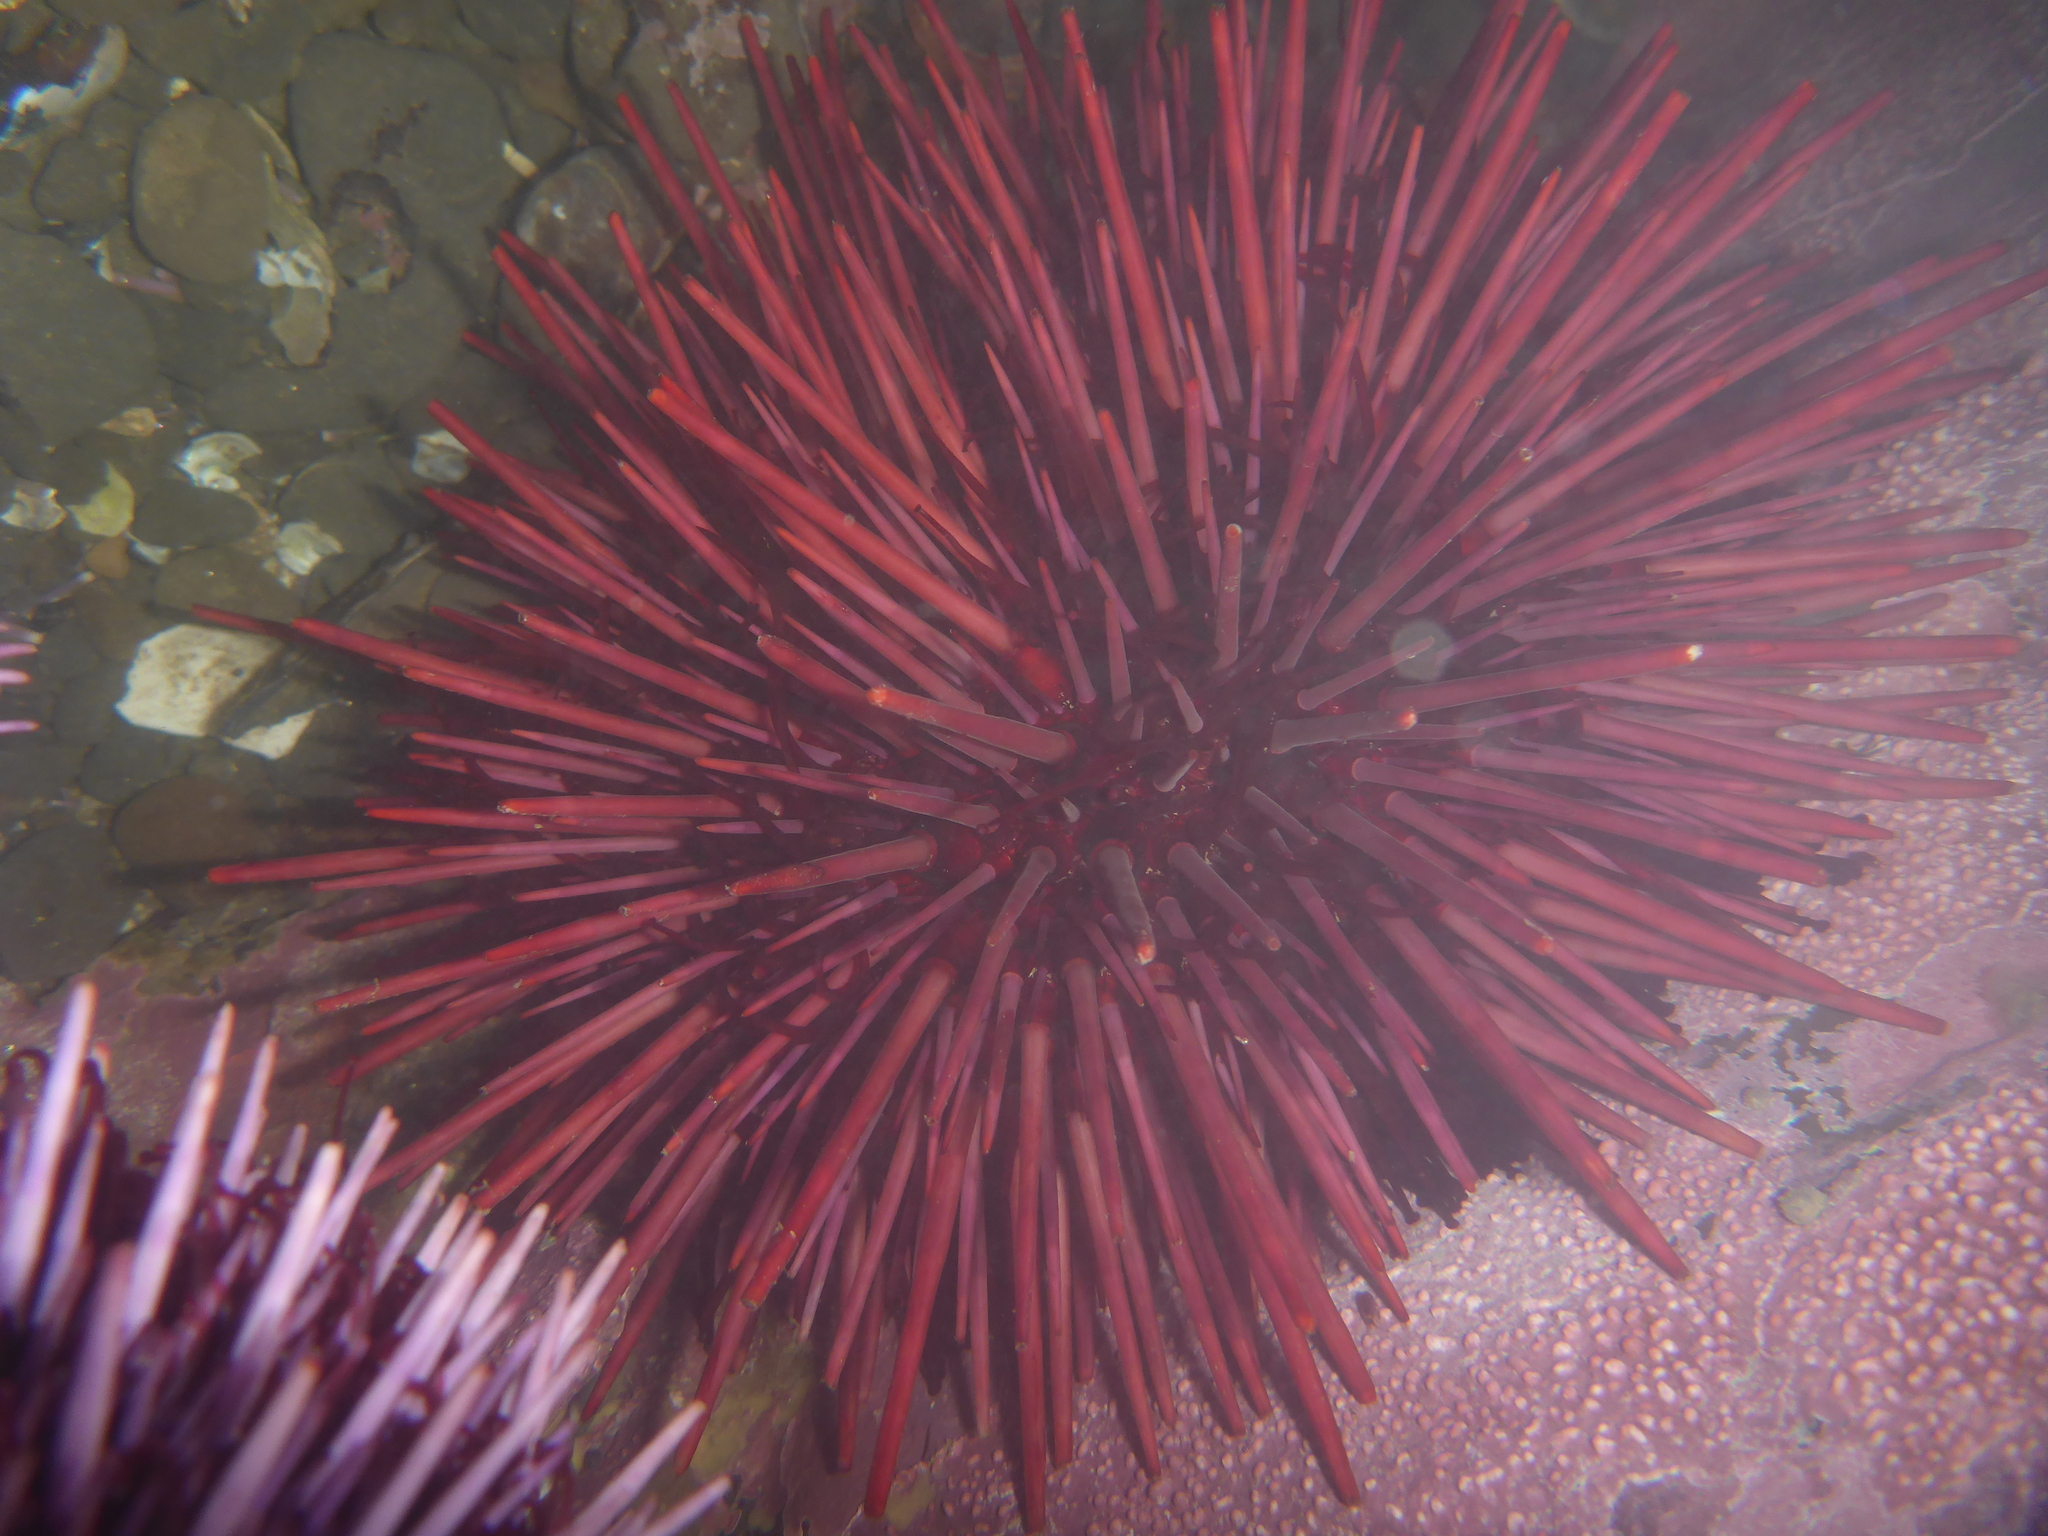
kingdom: Animalia
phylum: Echinodermata
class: Echinoidea
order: Camarodonta
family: Strongylocentrotidae
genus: Mesocentrotus
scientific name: Mesocentrotus franciscanus
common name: Red sea urchin
